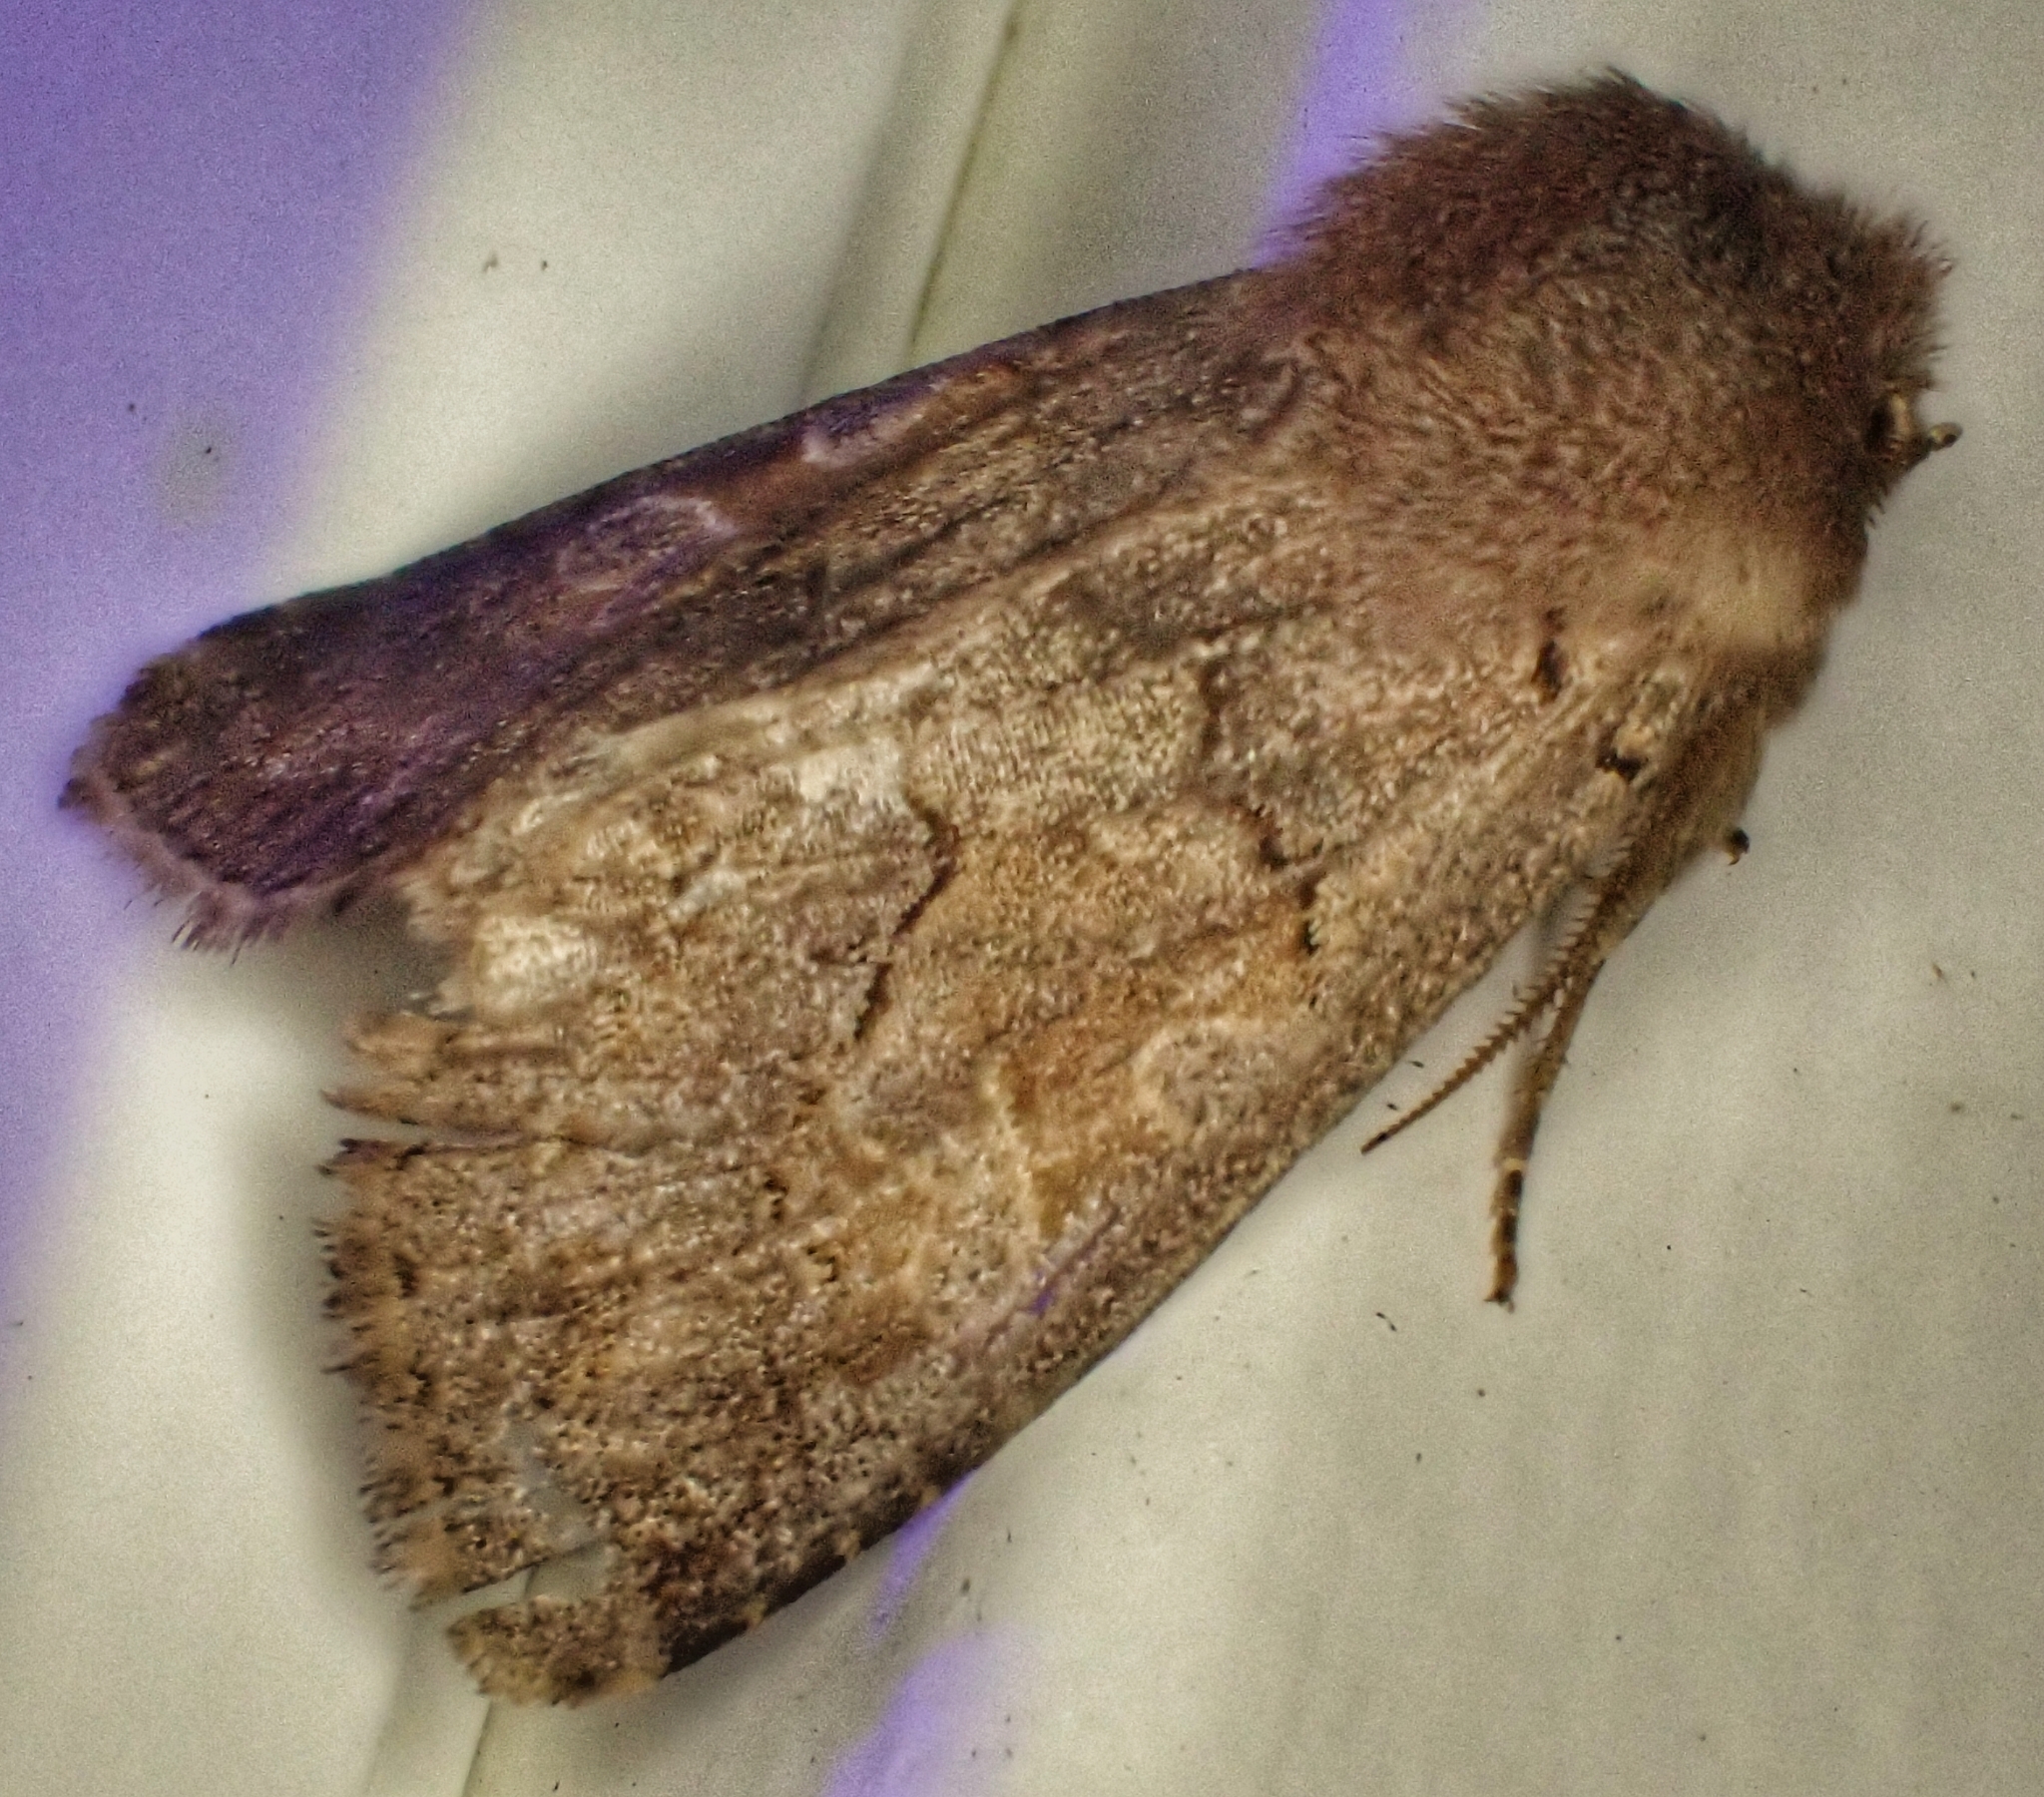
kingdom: Animalia
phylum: Arthropoda
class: Insecta
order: Lepidoptera
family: Noctuidae
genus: Orthosia
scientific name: Orthosia gothica
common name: Hebrew character
